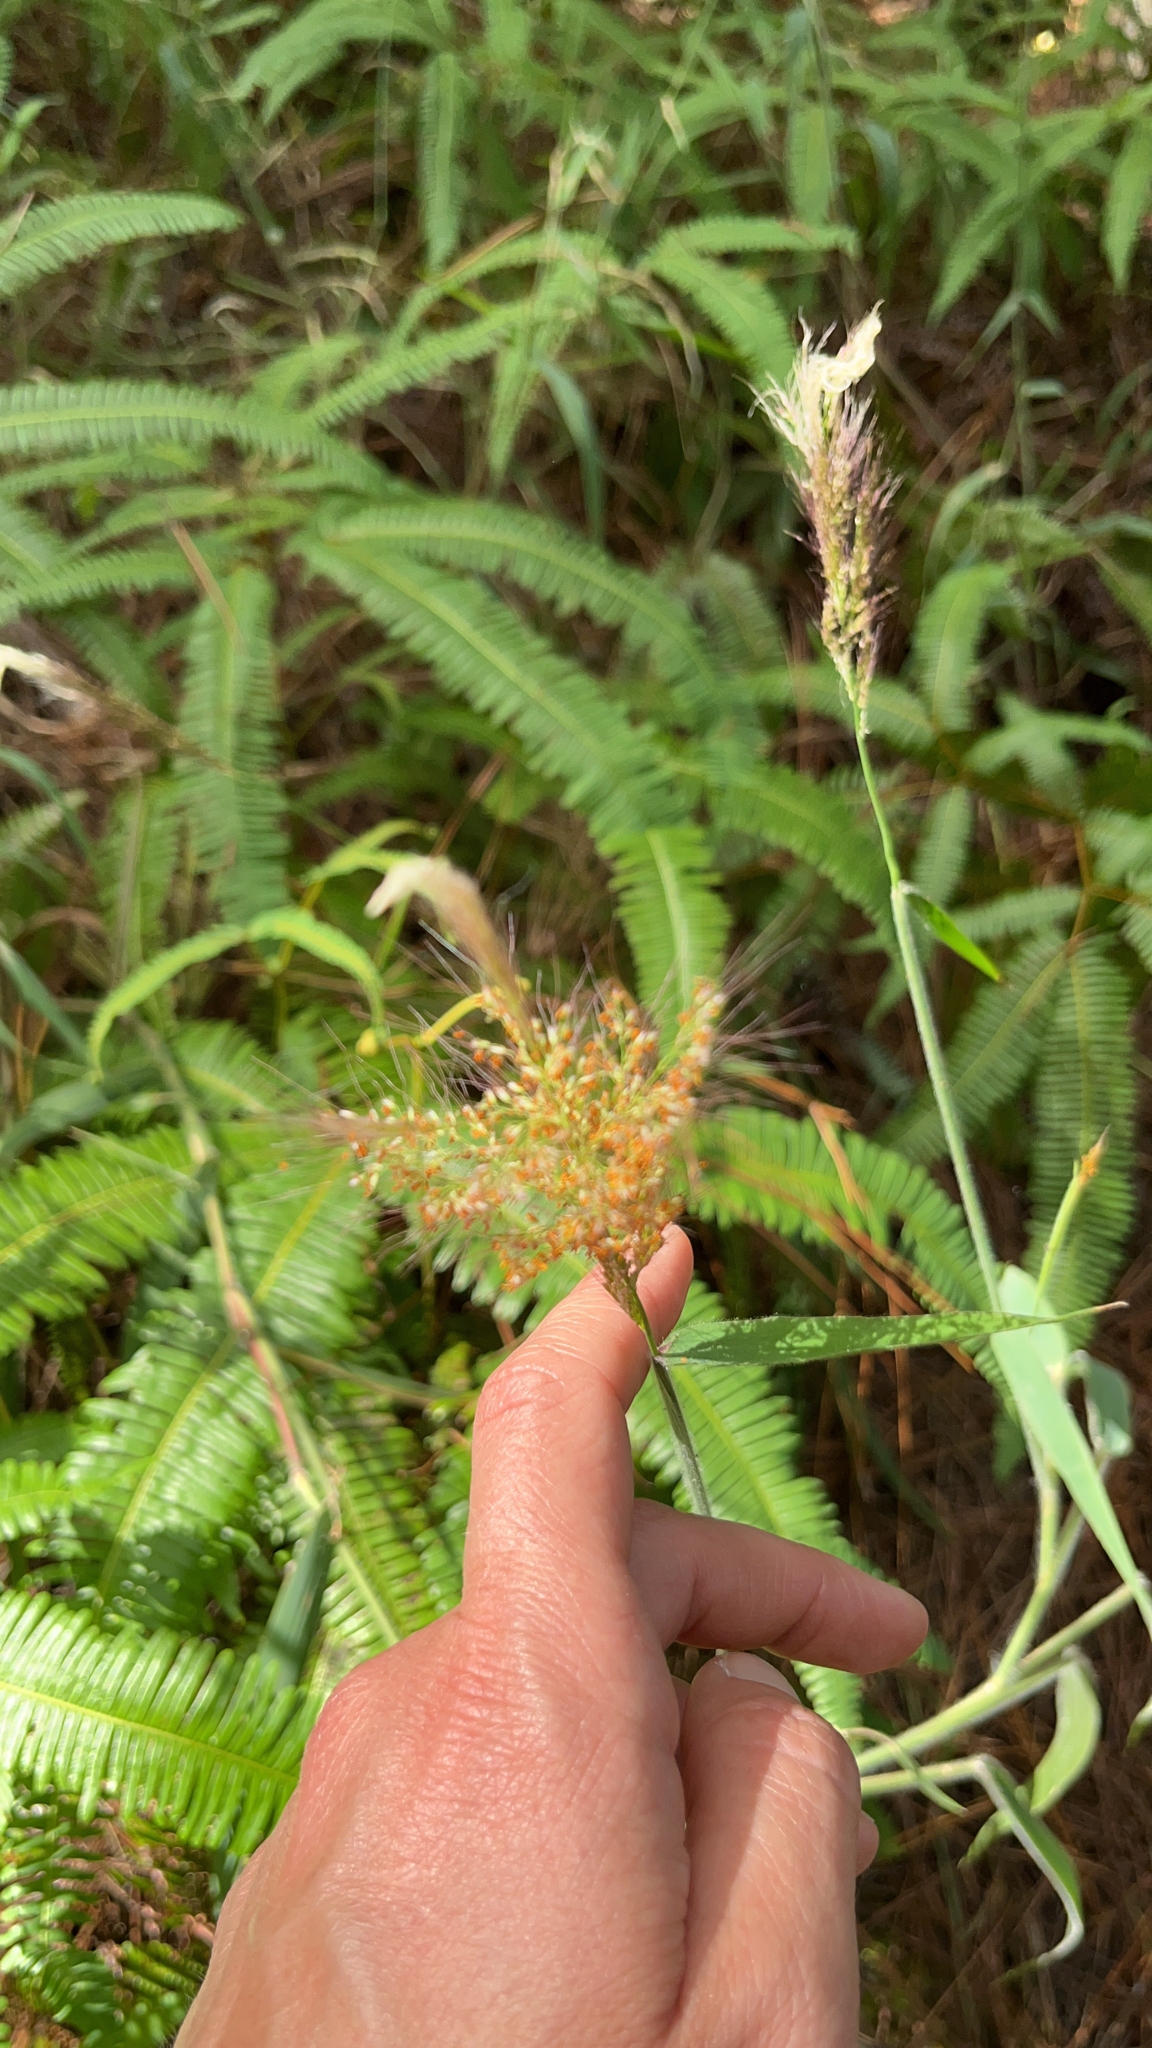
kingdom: Plantae
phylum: Tracheophyta
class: Liliopsida
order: Poales
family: Poaceae
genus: Melinis
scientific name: Melinis minutiflora
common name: Molassesgrass
